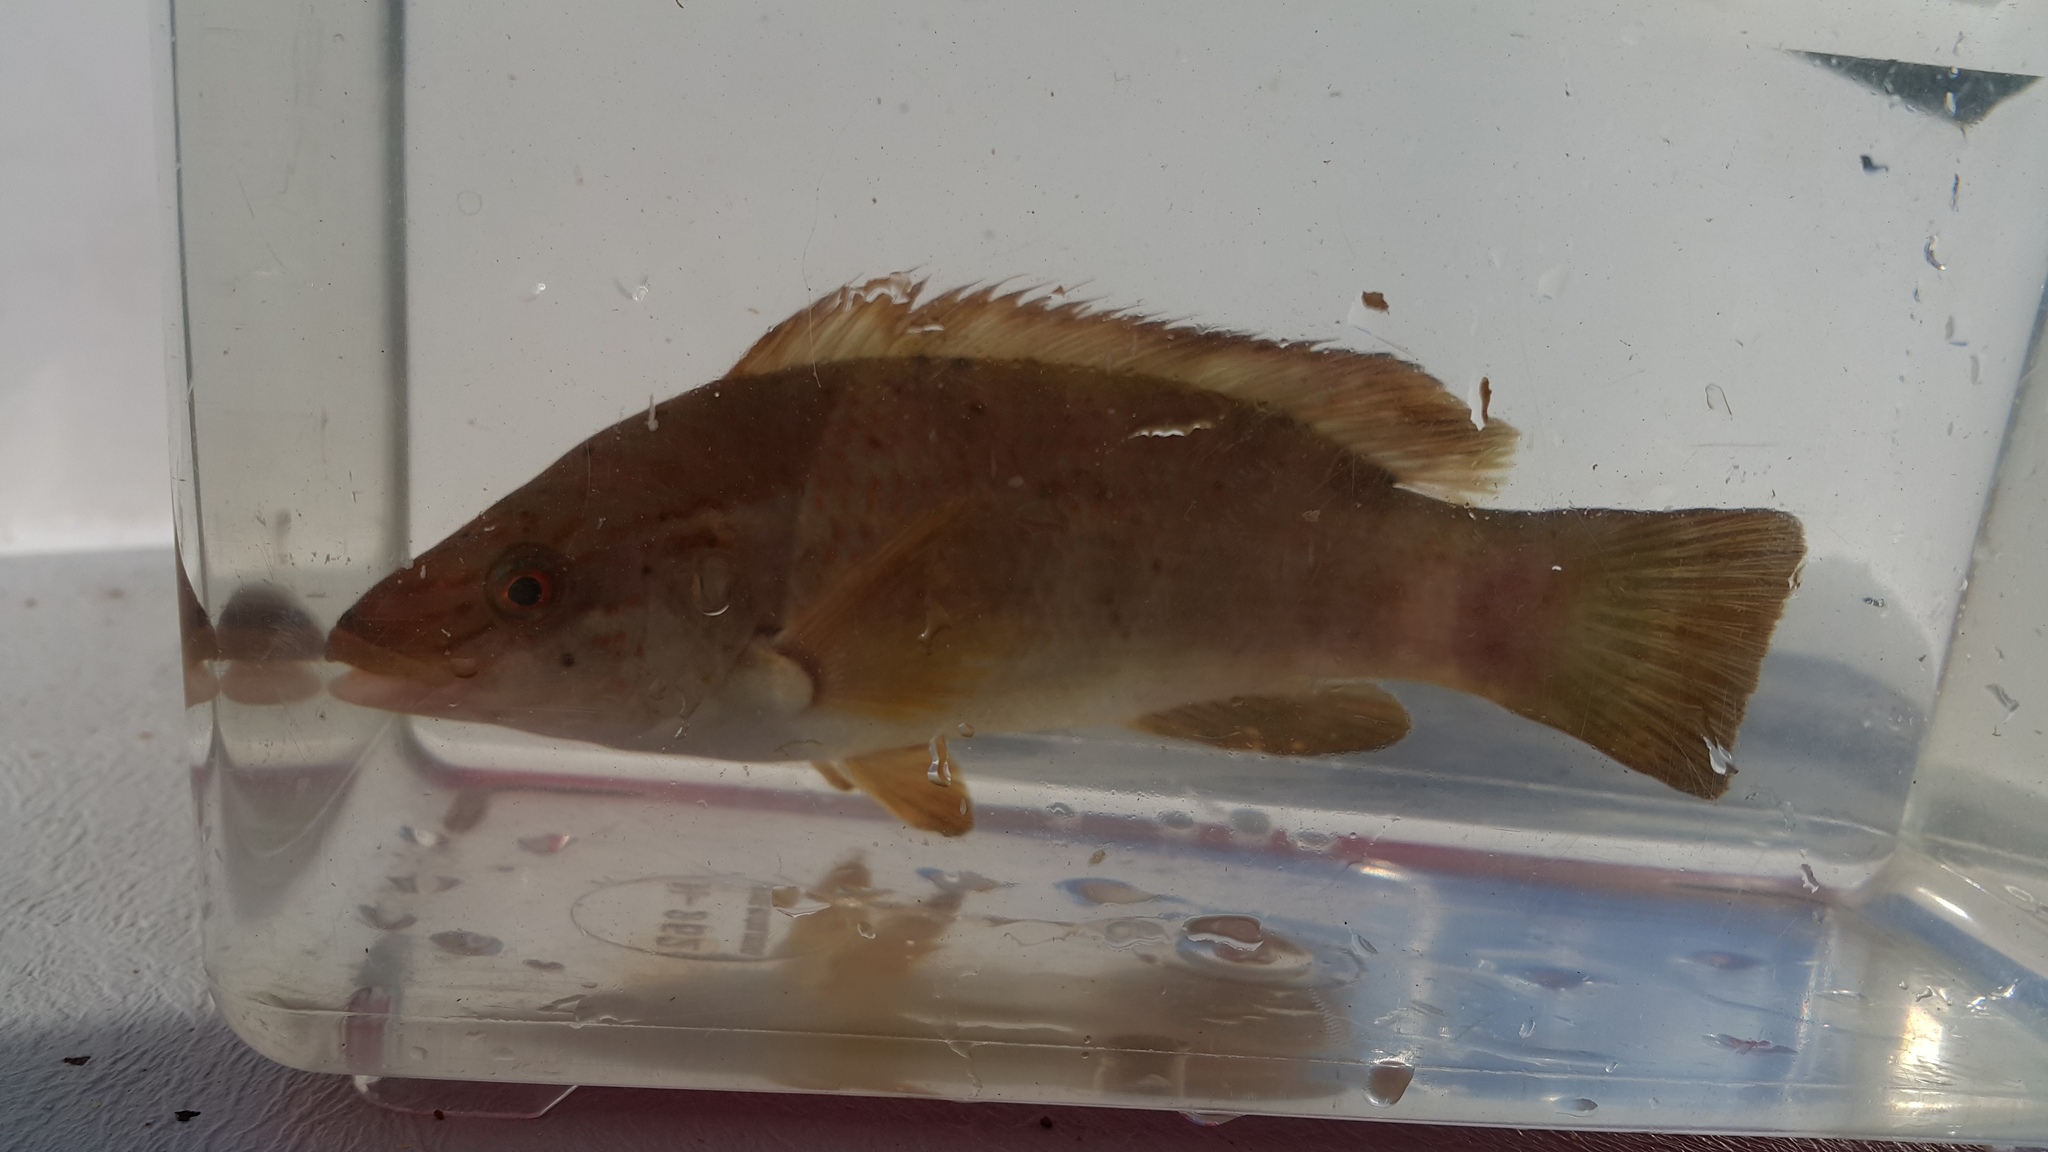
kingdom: Animalia
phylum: Chordata
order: Perciformes
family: Labridae
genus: Labrus
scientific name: Labrus bergylta
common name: Ballan wrasse
